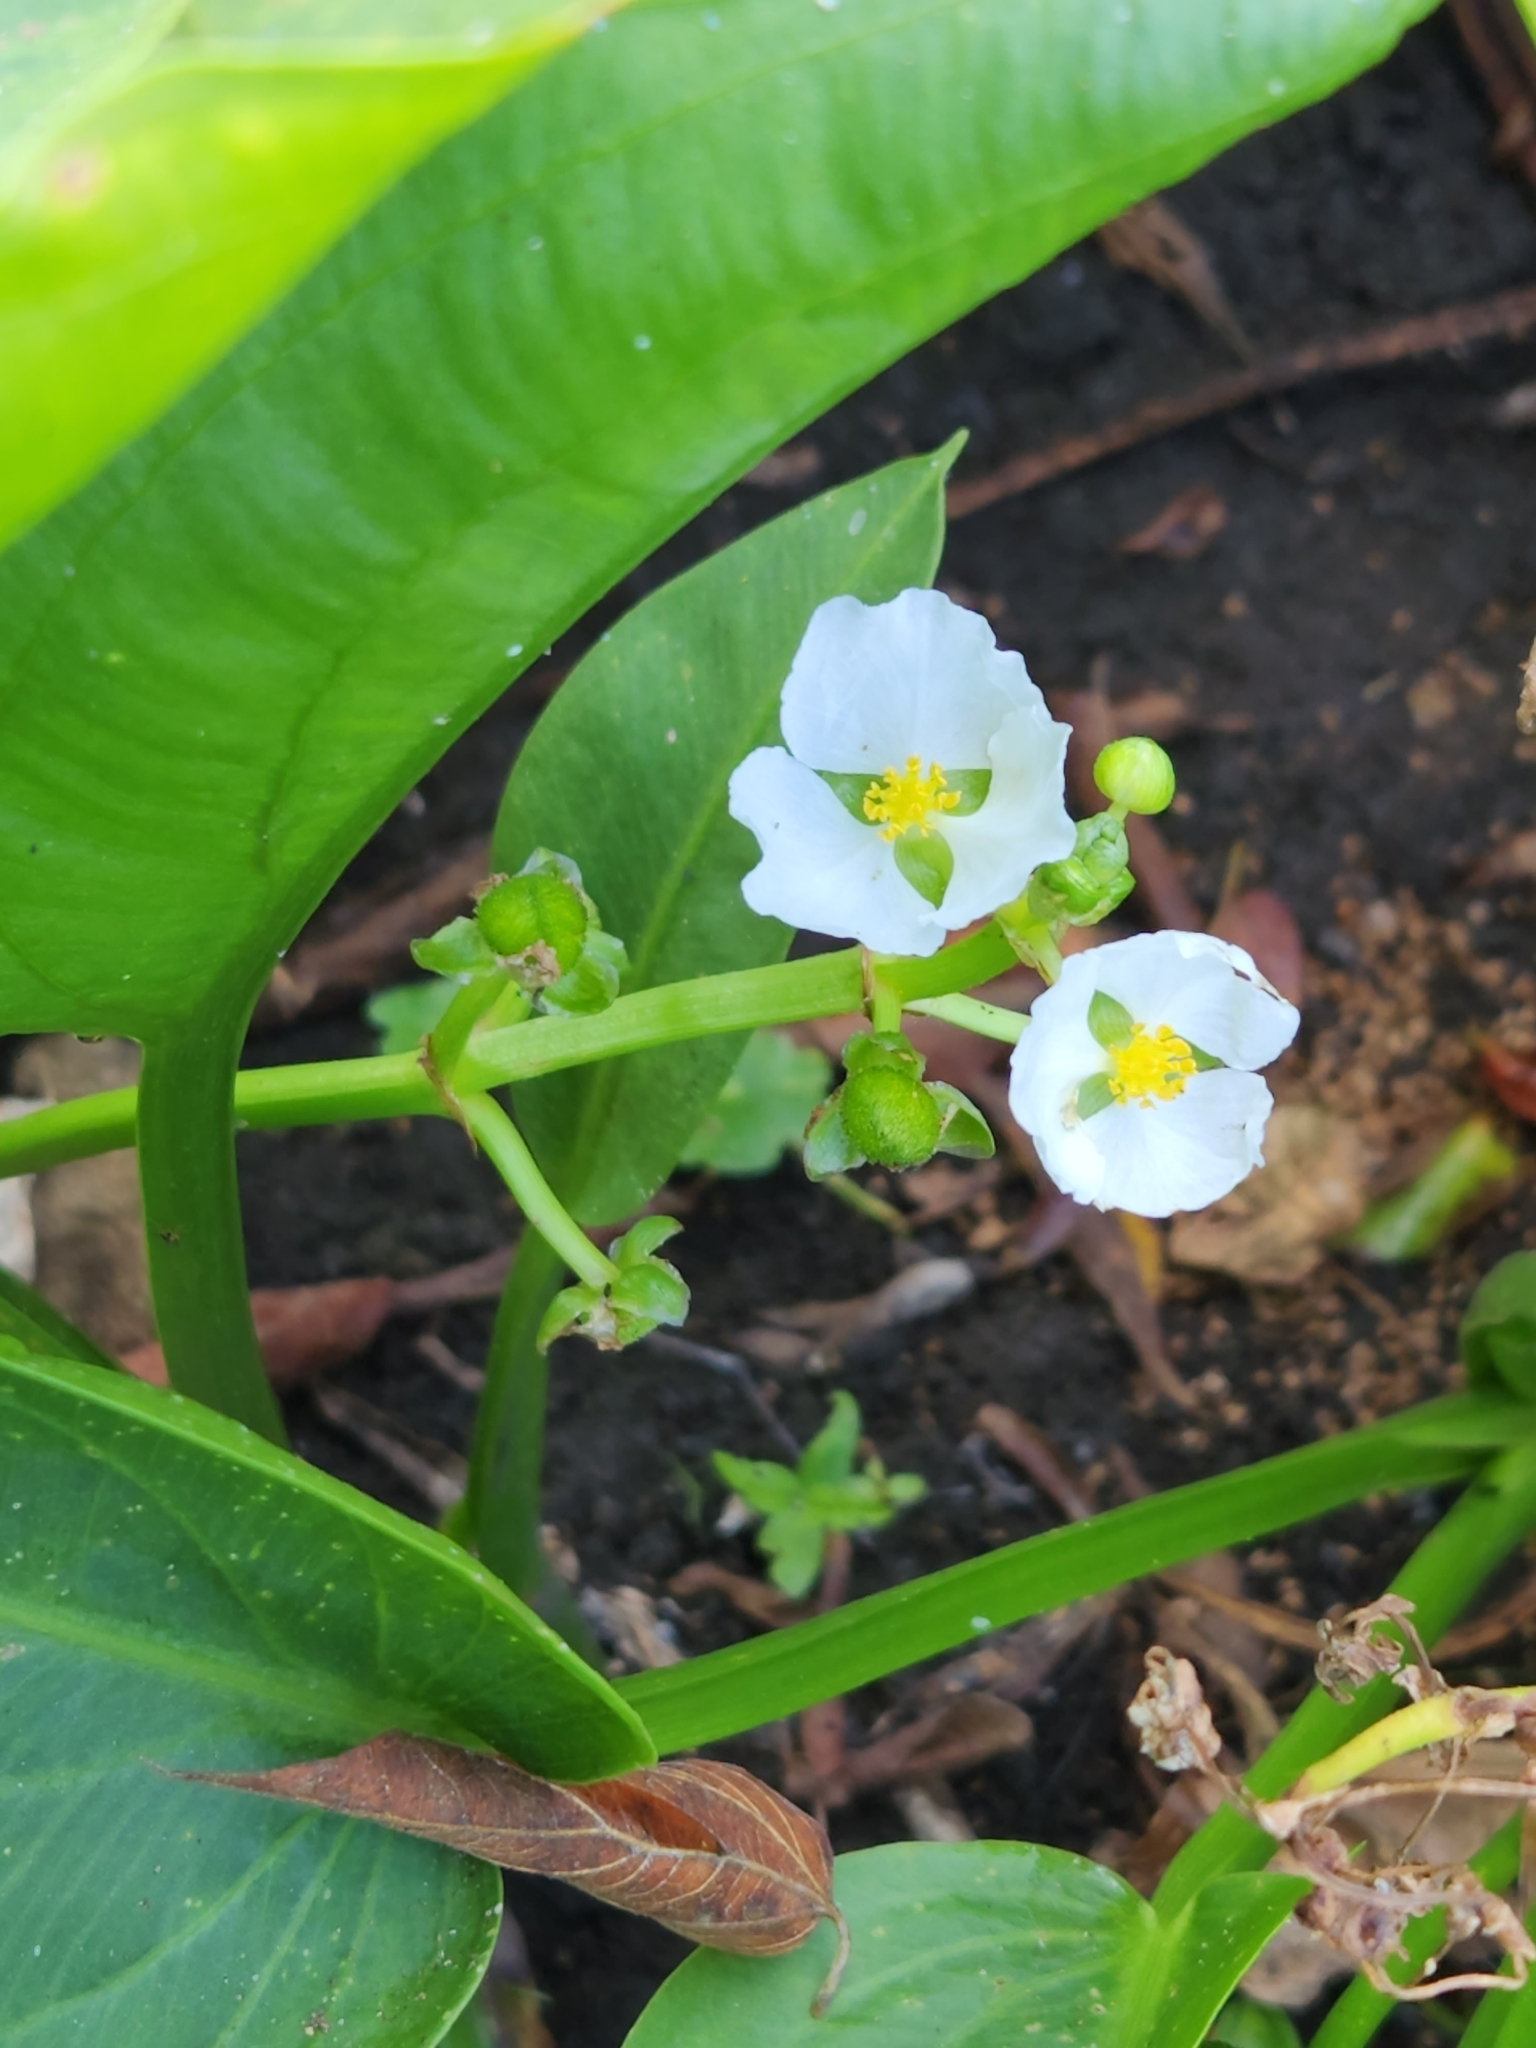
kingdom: Plantae
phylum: Tracheophyta
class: Liliopsida
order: Alismatales
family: Alismataceae
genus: Sagittaria
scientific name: Sagittaria platyphylla
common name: Broad-leaf arrowhead
